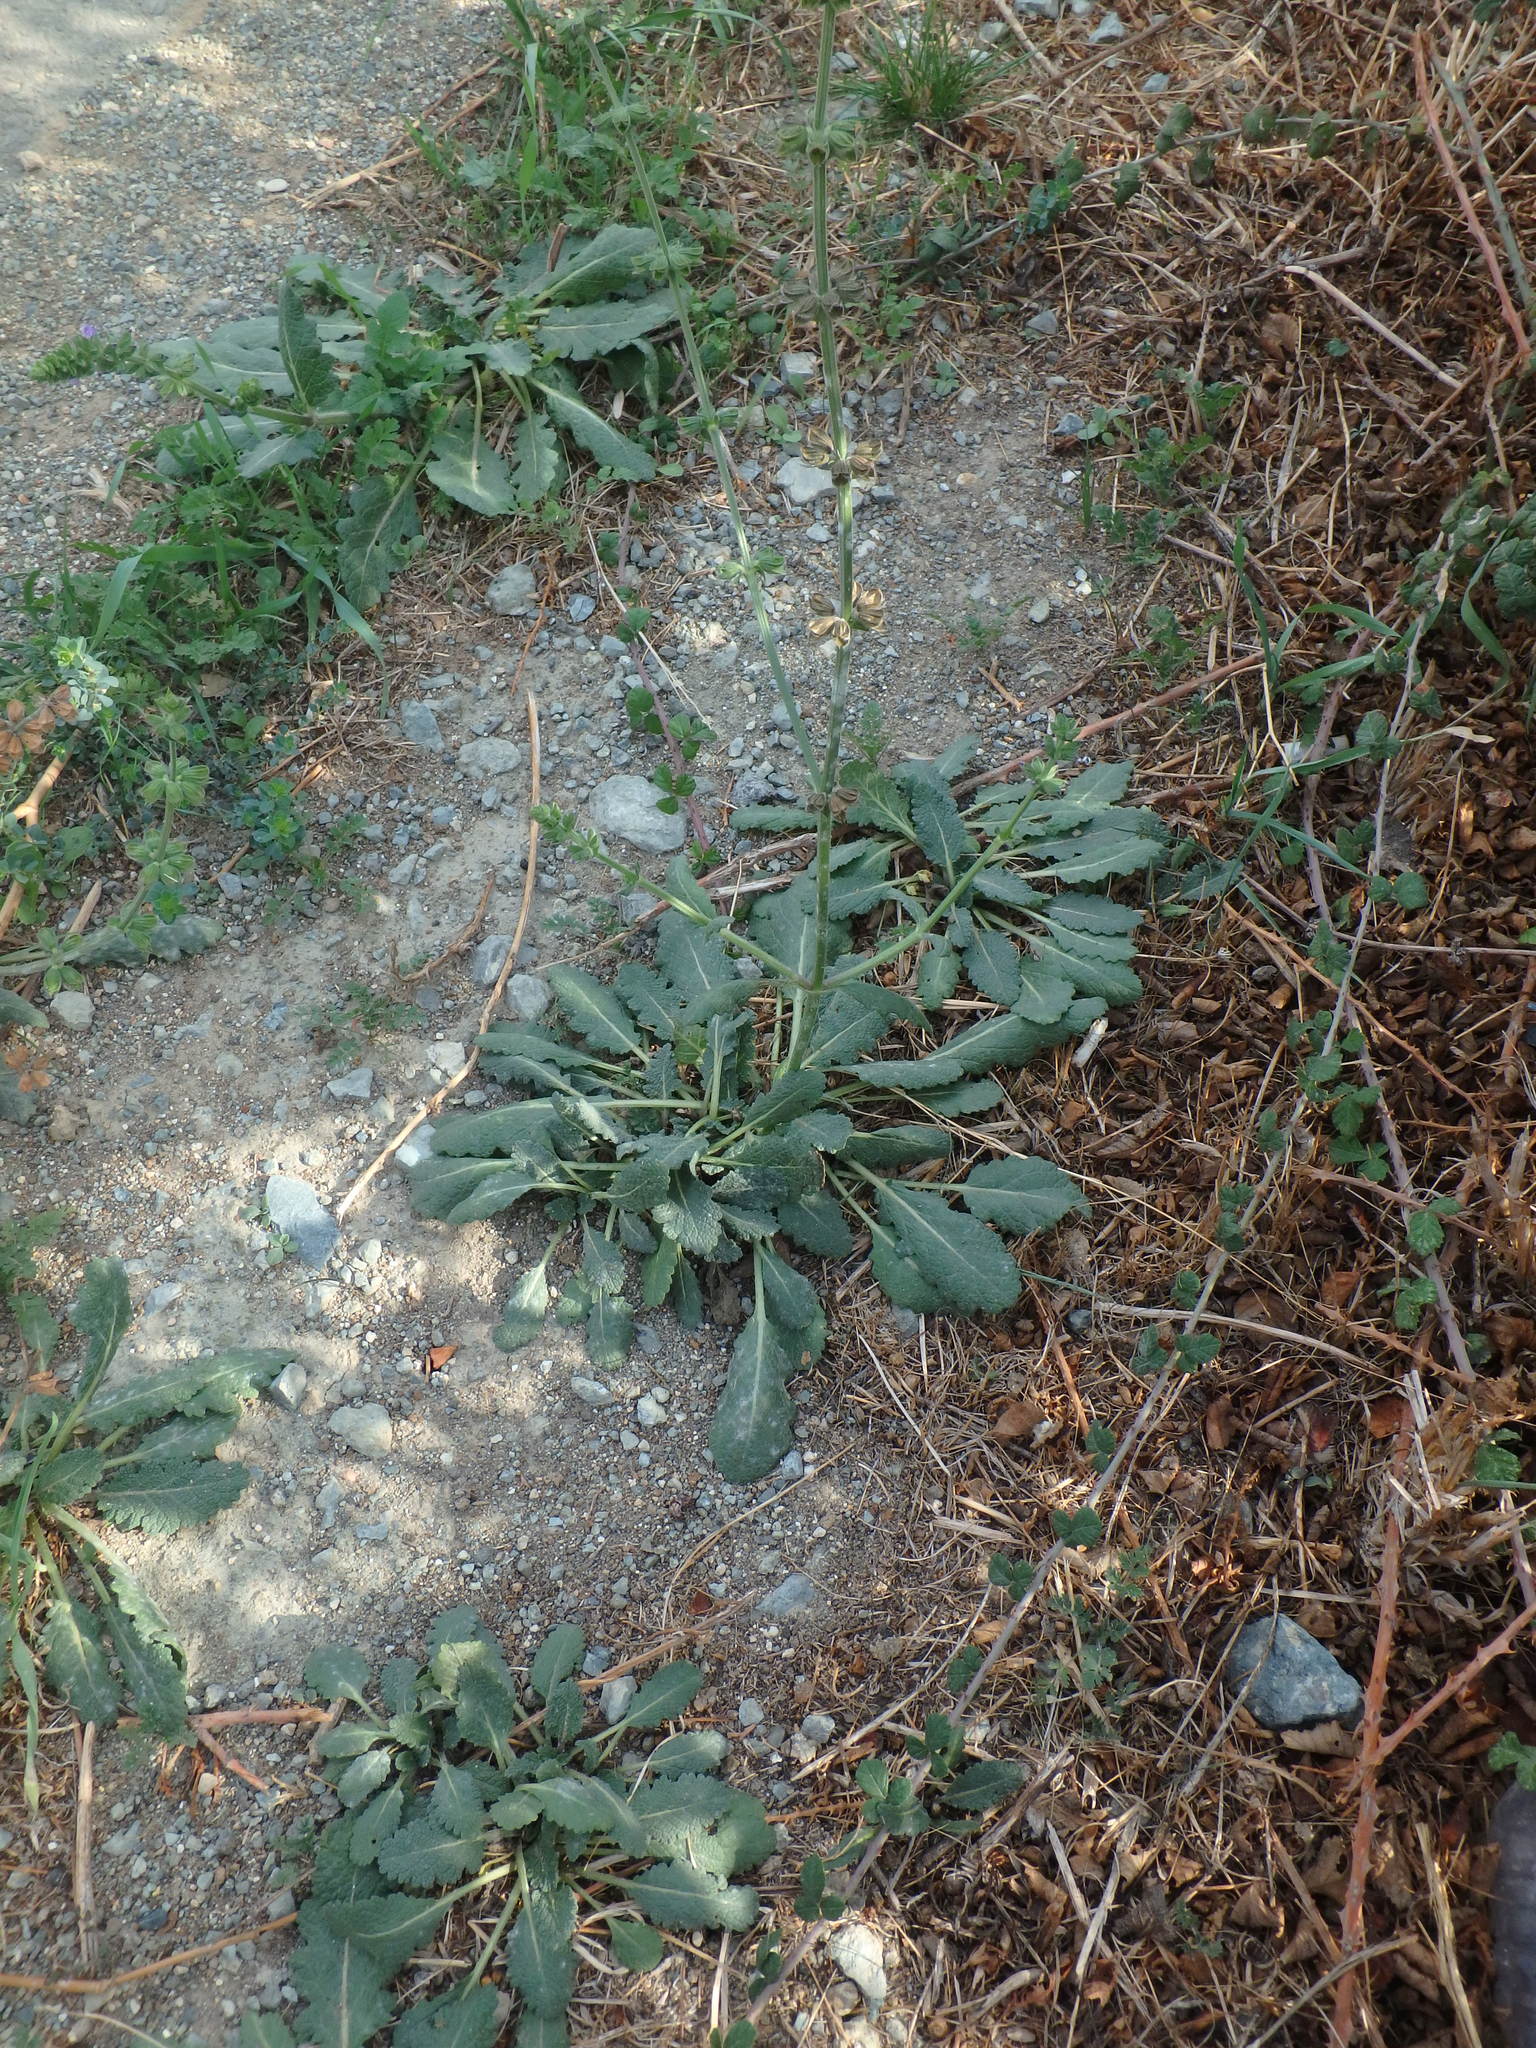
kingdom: Plantae
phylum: Tracheophyta
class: Magnoliopsida
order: Lamiales
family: Lamiaceae
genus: Salvia
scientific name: Salvia verbenaca
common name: Wild clary
